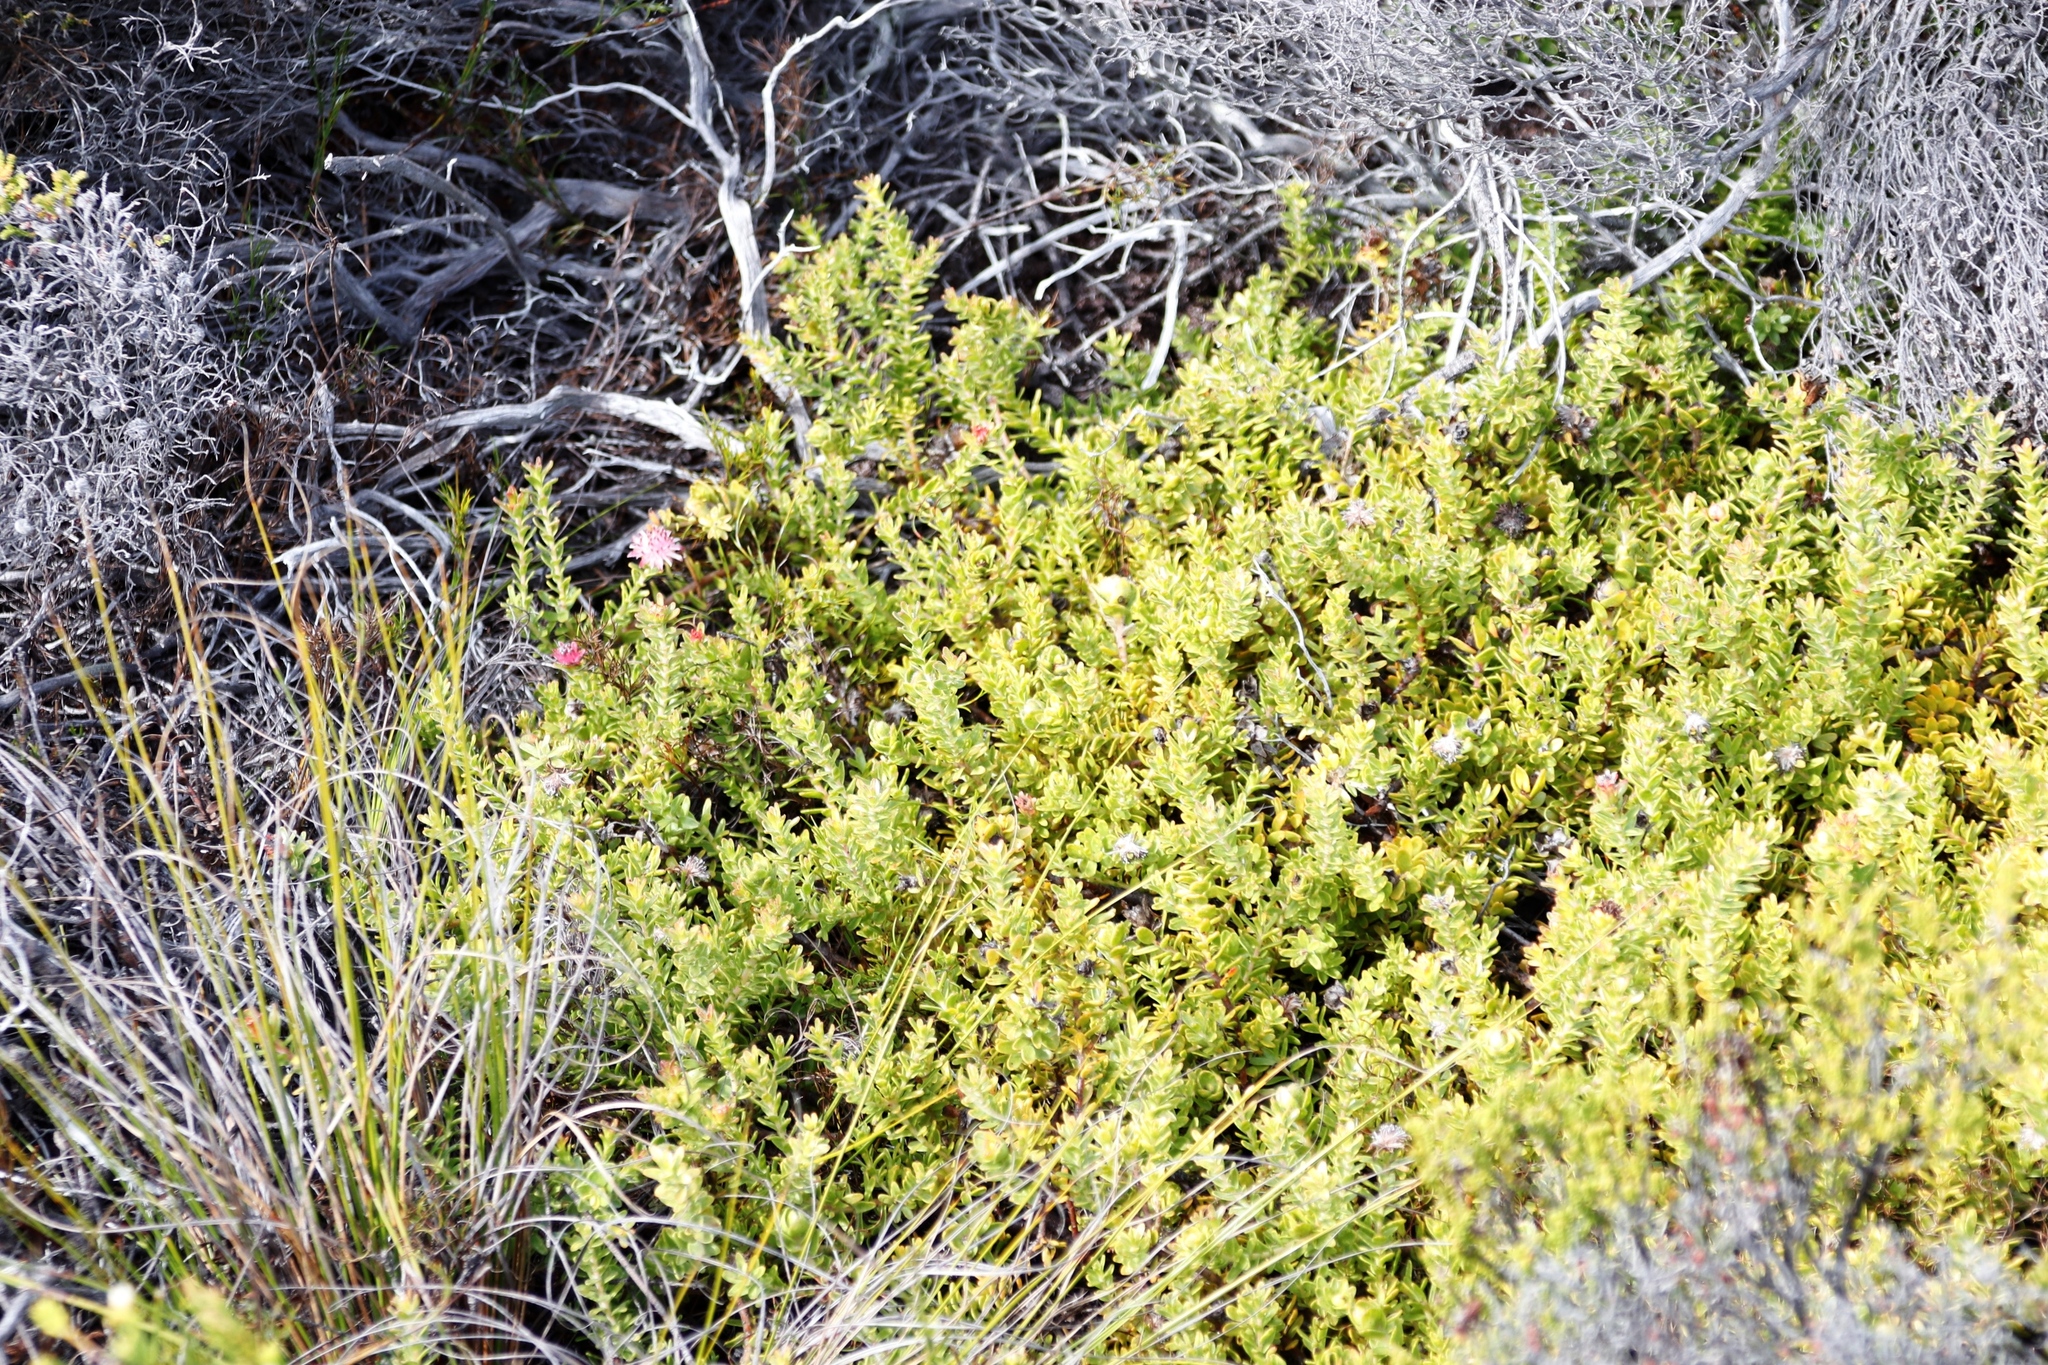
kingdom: Plantae
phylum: Tracheophyta
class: Magnoliopsida
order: Proteales
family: Proteaceae
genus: Diastella
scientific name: Diastella divaricata
